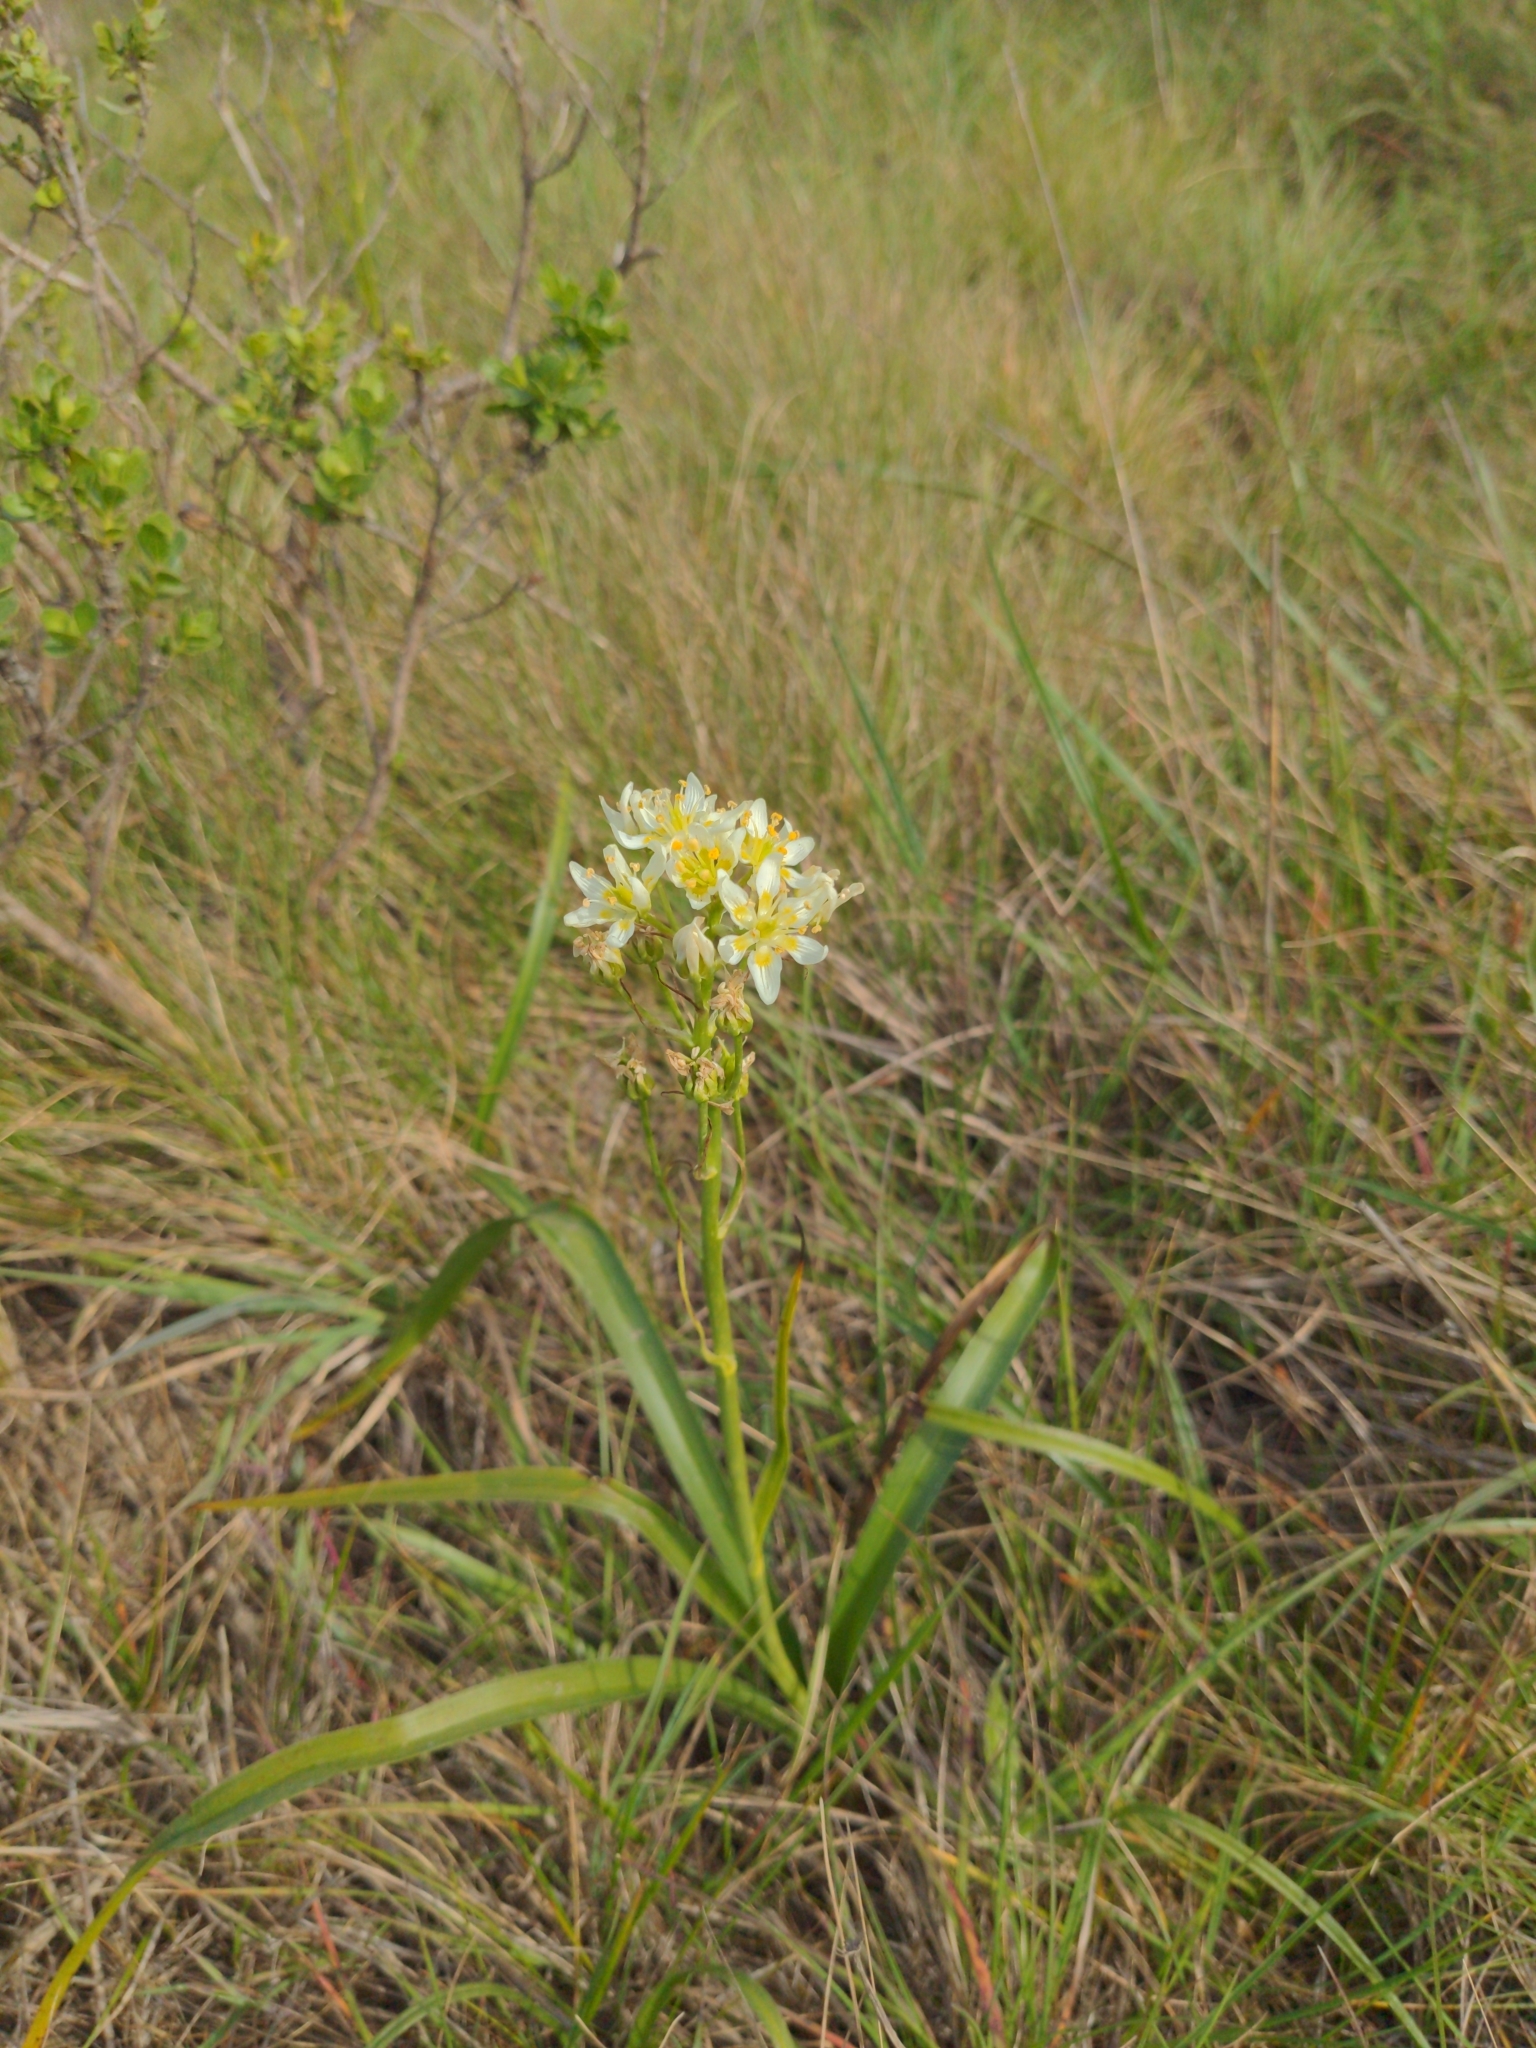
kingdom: Plantae
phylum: Tracheophyta
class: Liliopsida
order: Liliales
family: Melanthiaceae
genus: Toxicoscordion
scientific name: Toxicoscordion fremontii
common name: Fremont's death camas
